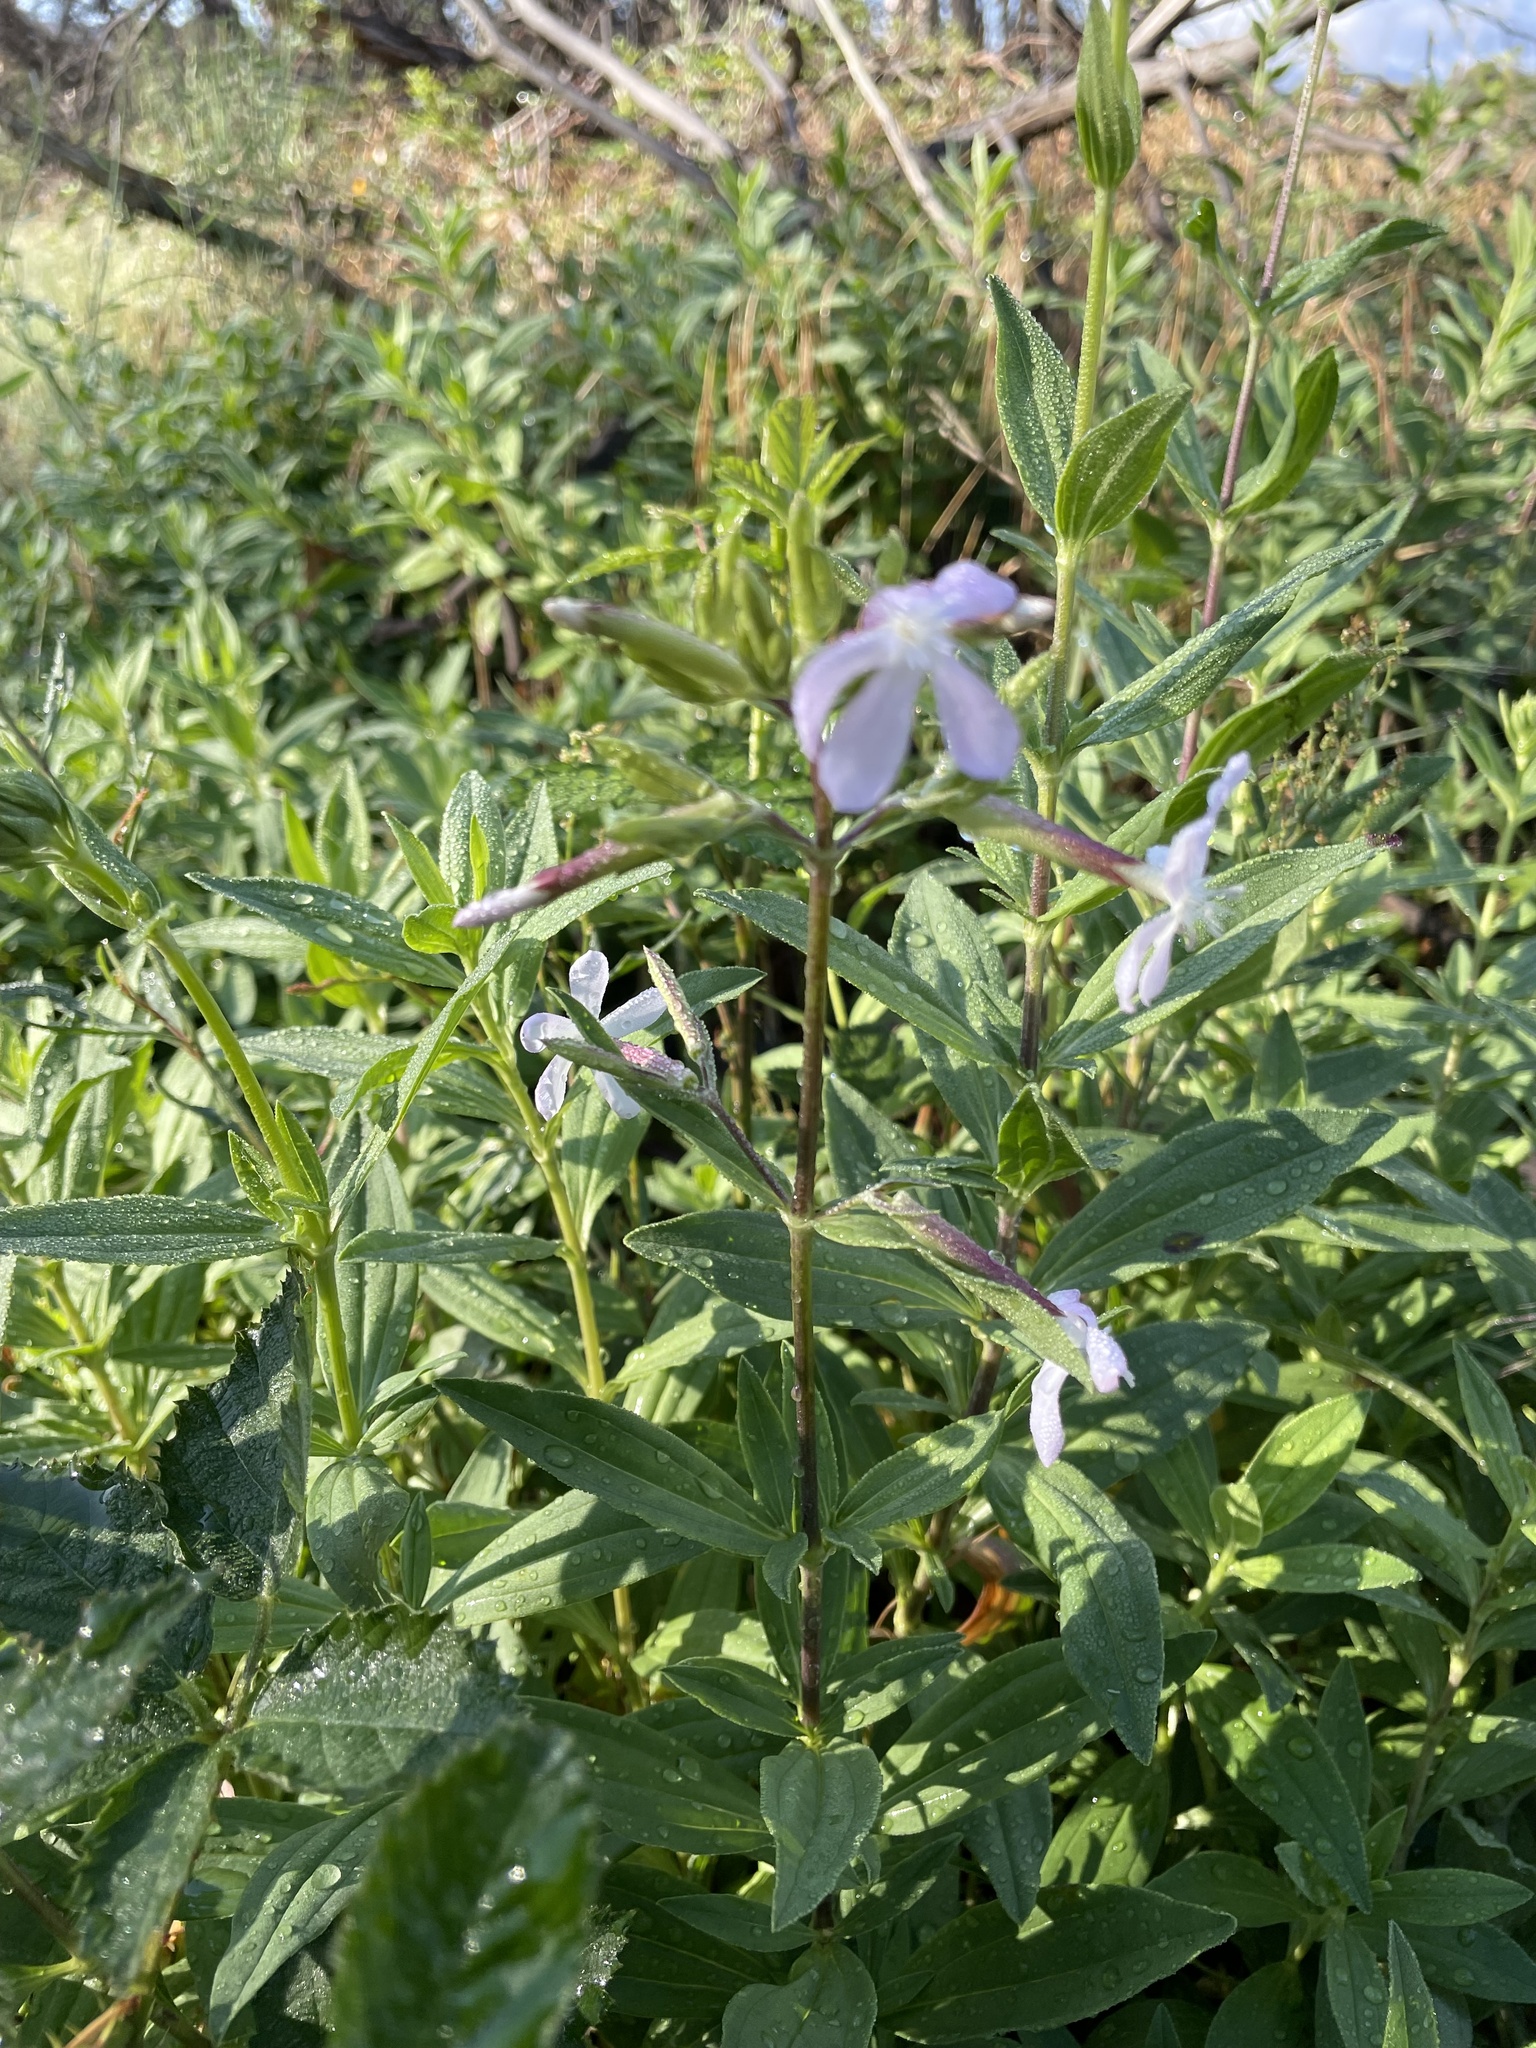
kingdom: Plantae
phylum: Tracheophyta
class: Magnoliopsida
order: Caryophyllales
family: Caryophyllaceae
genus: Saponaria
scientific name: Saponaria officinalis
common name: Soapwort
